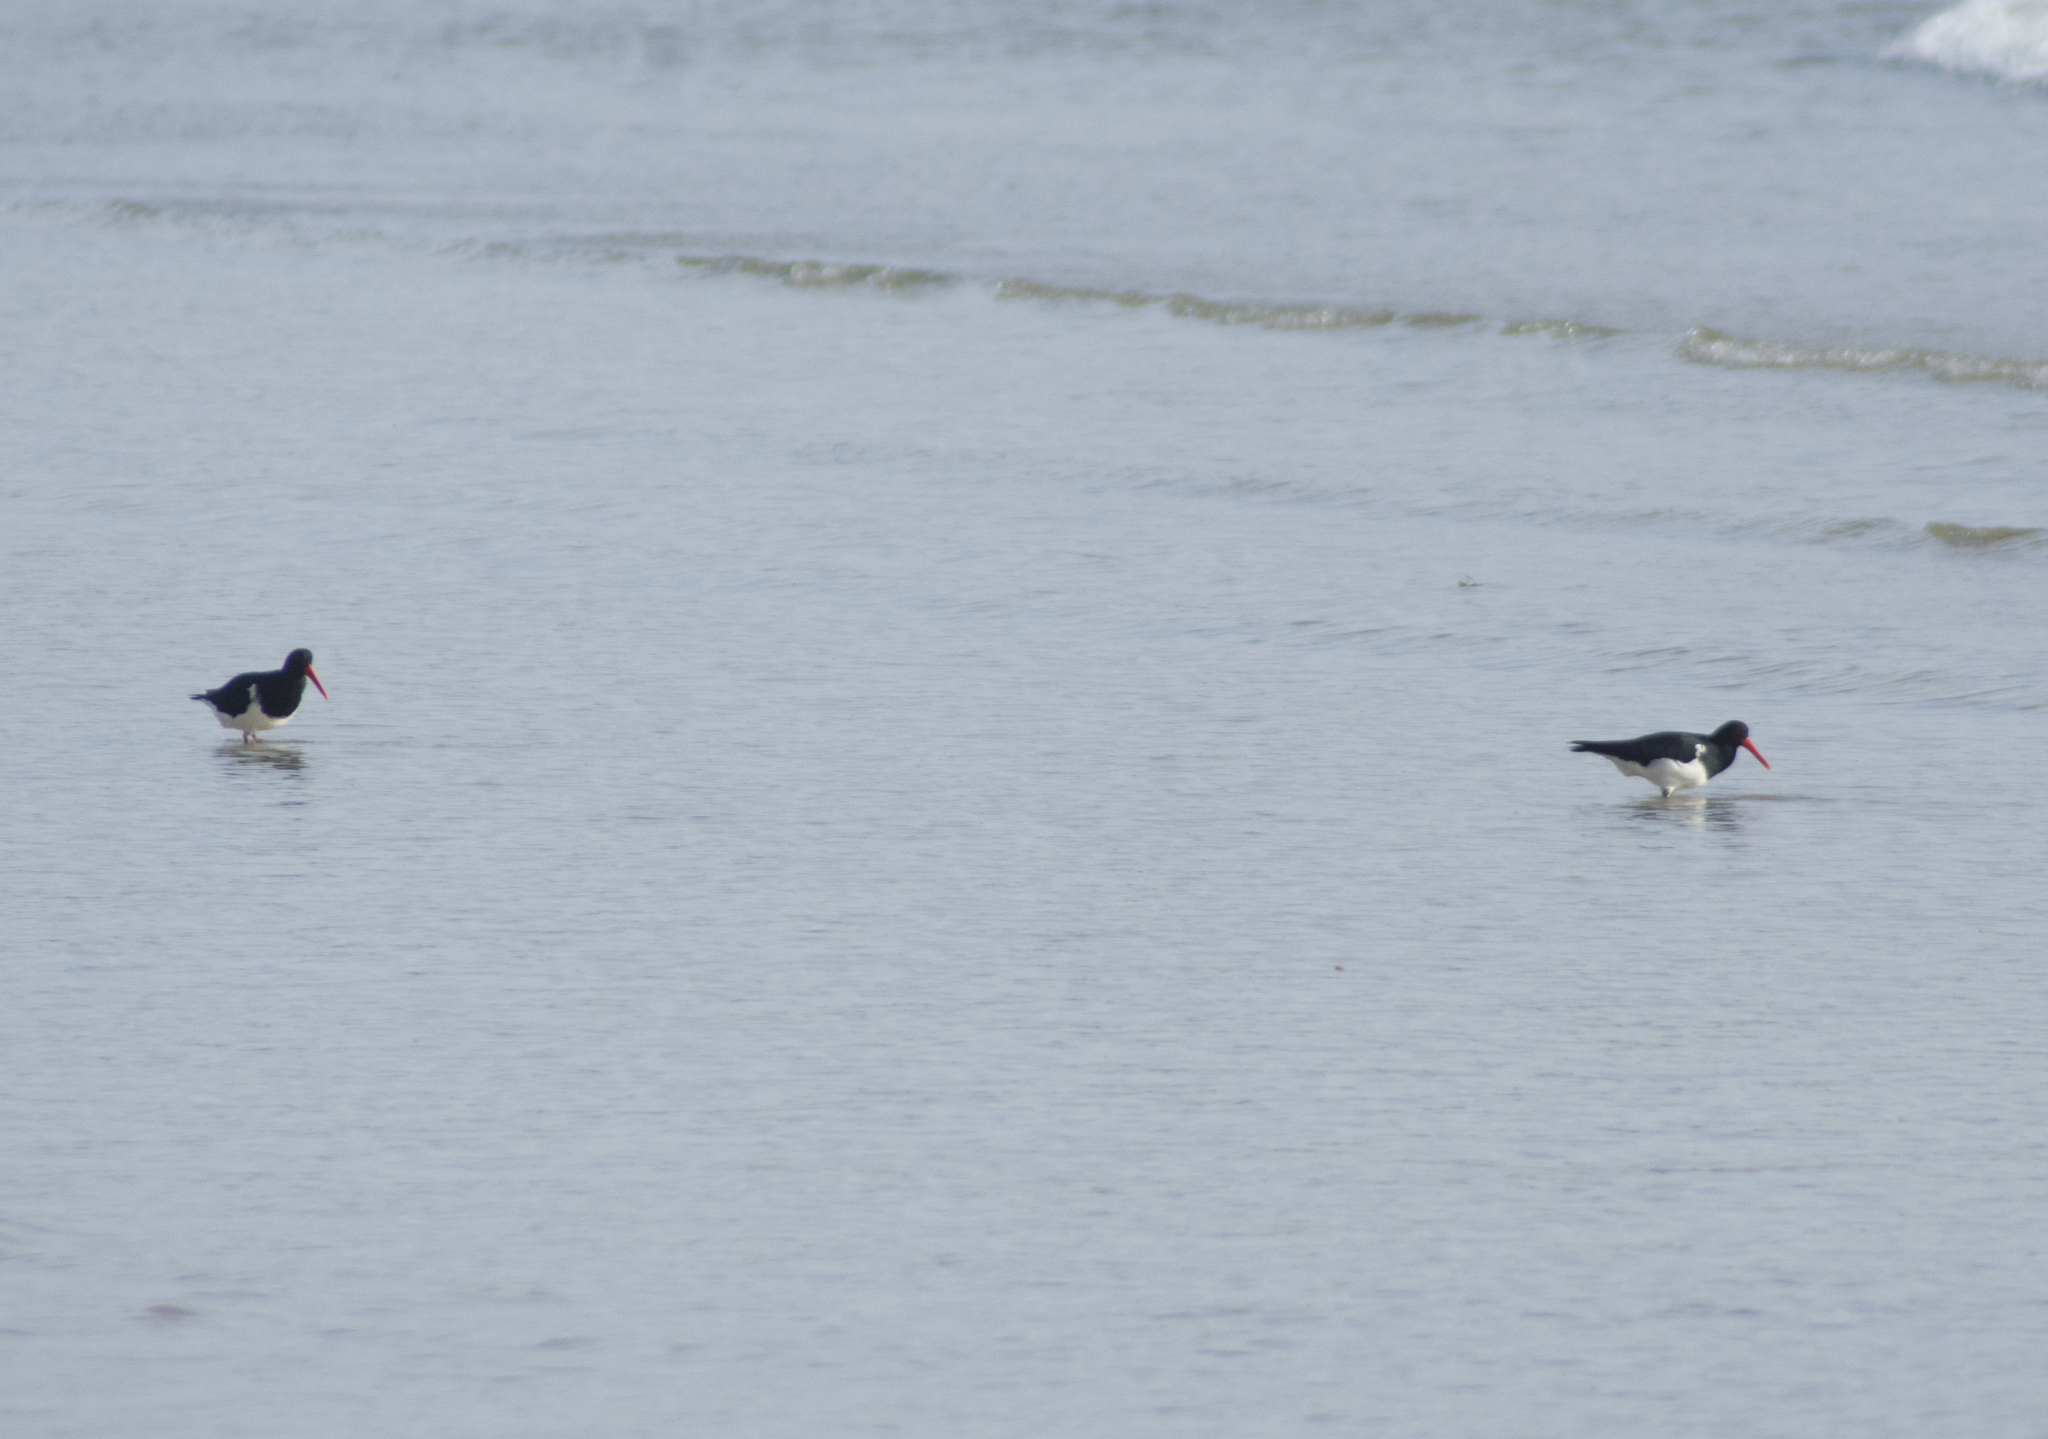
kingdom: Animalia
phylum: Chordata
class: Aves
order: Charadriiformes
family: Haematopodidae
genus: Haematopus
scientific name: Haematopus longirostris
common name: Pied oystercatcher
